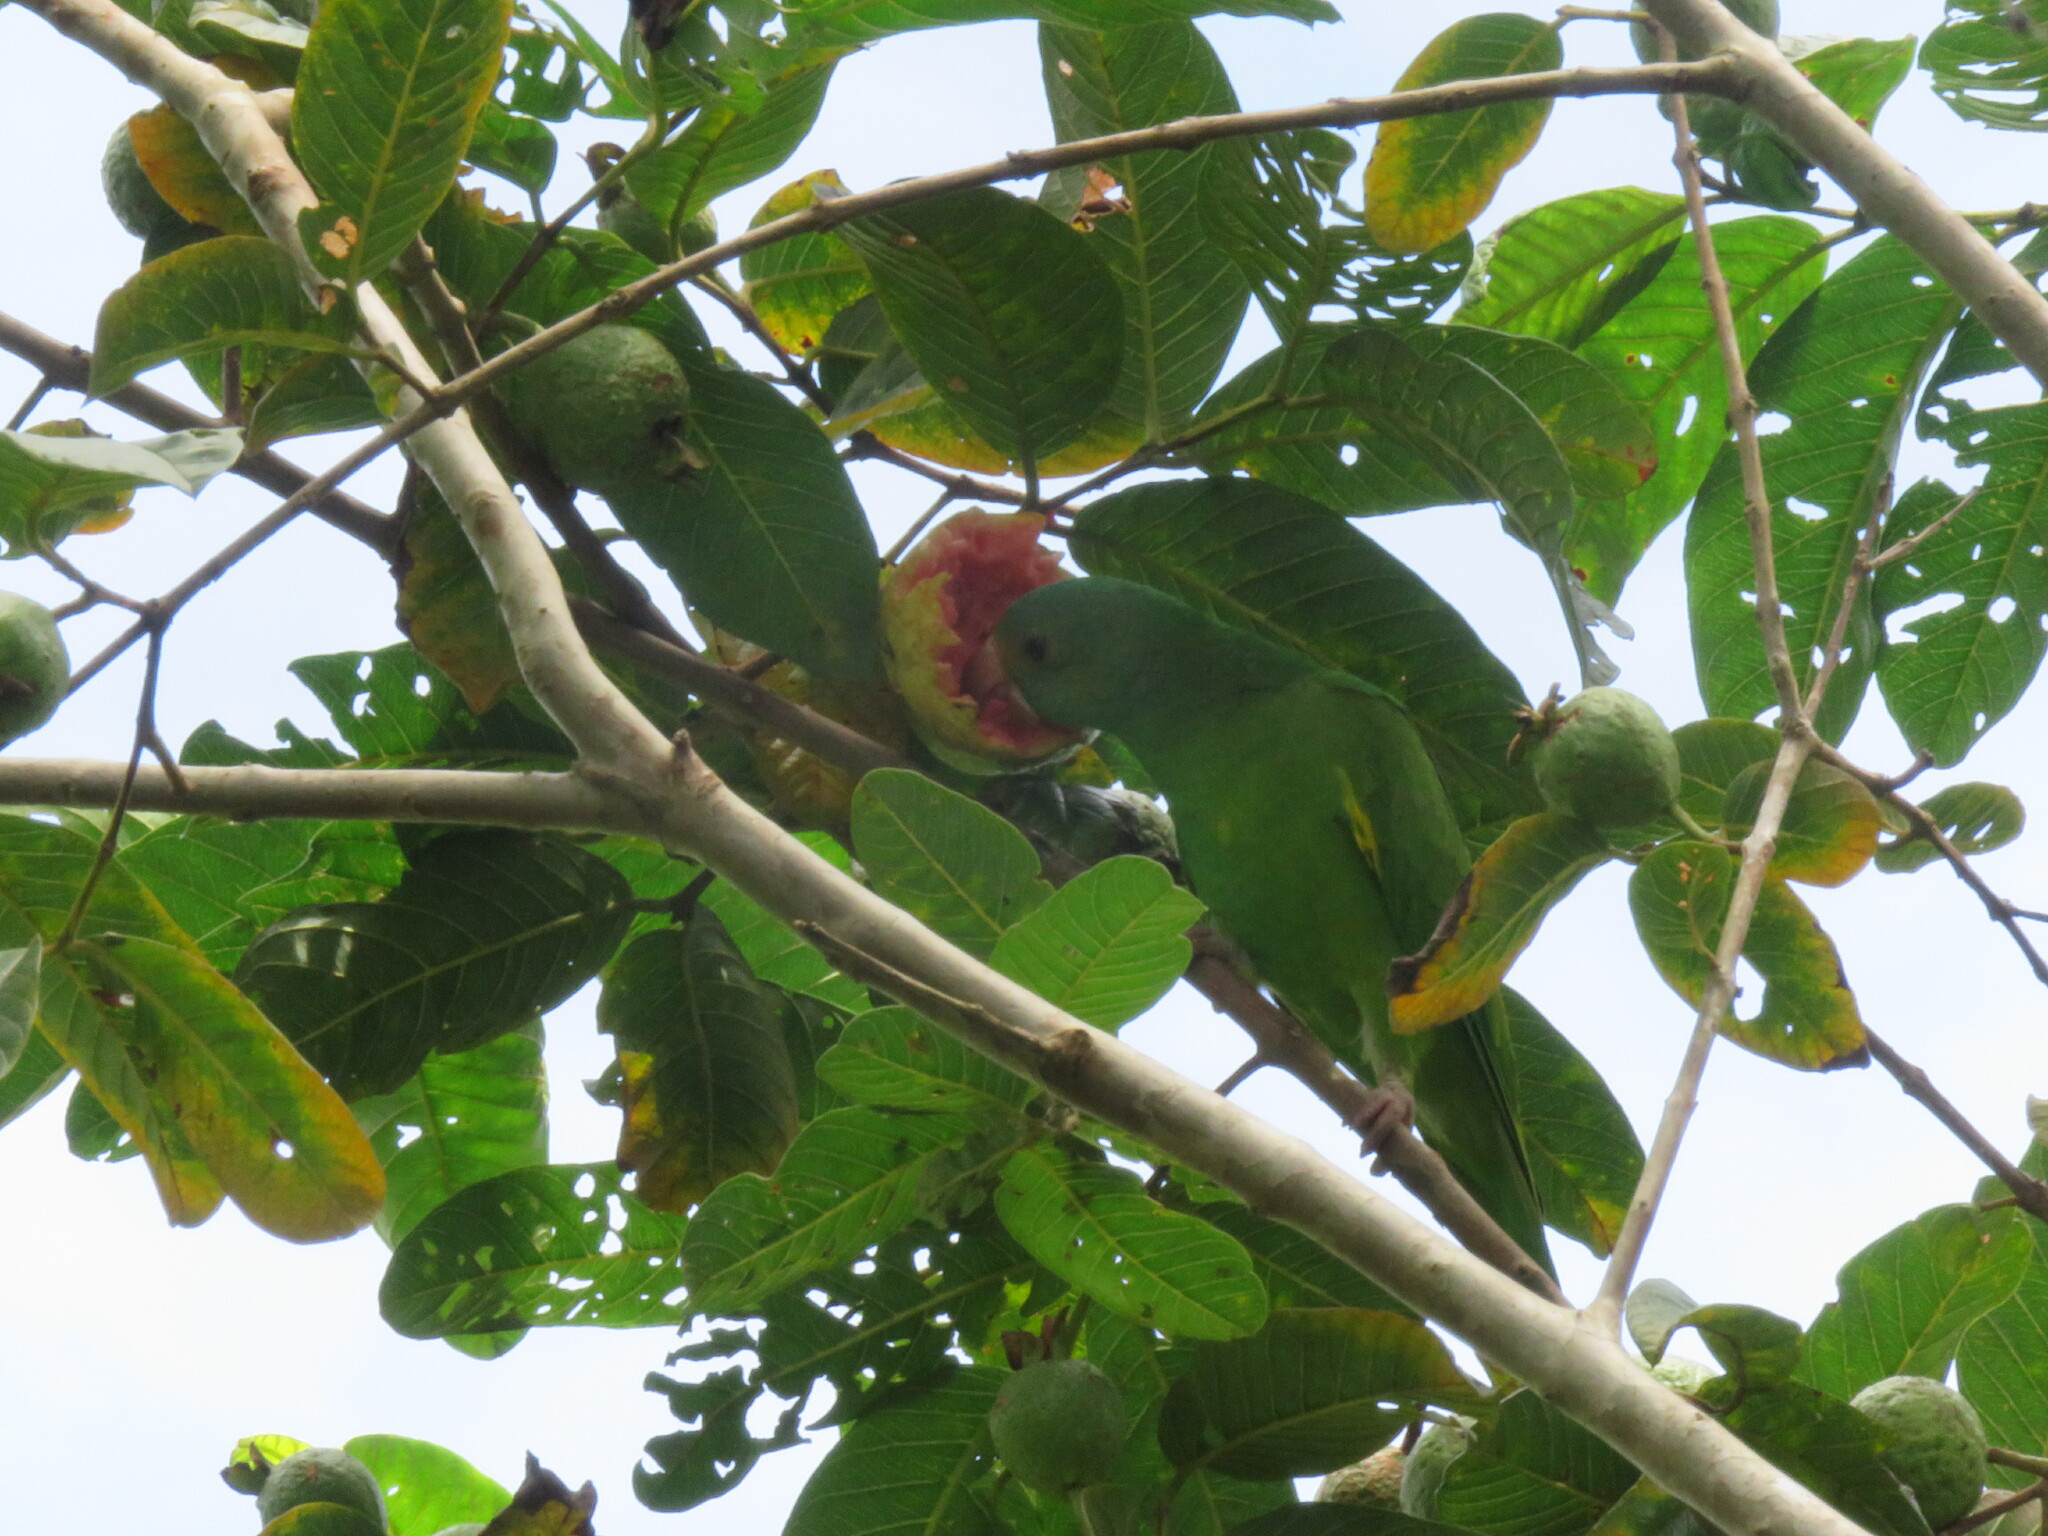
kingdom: Animalia
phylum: Chordata
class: Aves
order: Psittaciformes
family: Psittacidae
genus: Brotogeris
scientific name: Brotogeris cyanoptera
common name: Cobalt-winged parakeet
